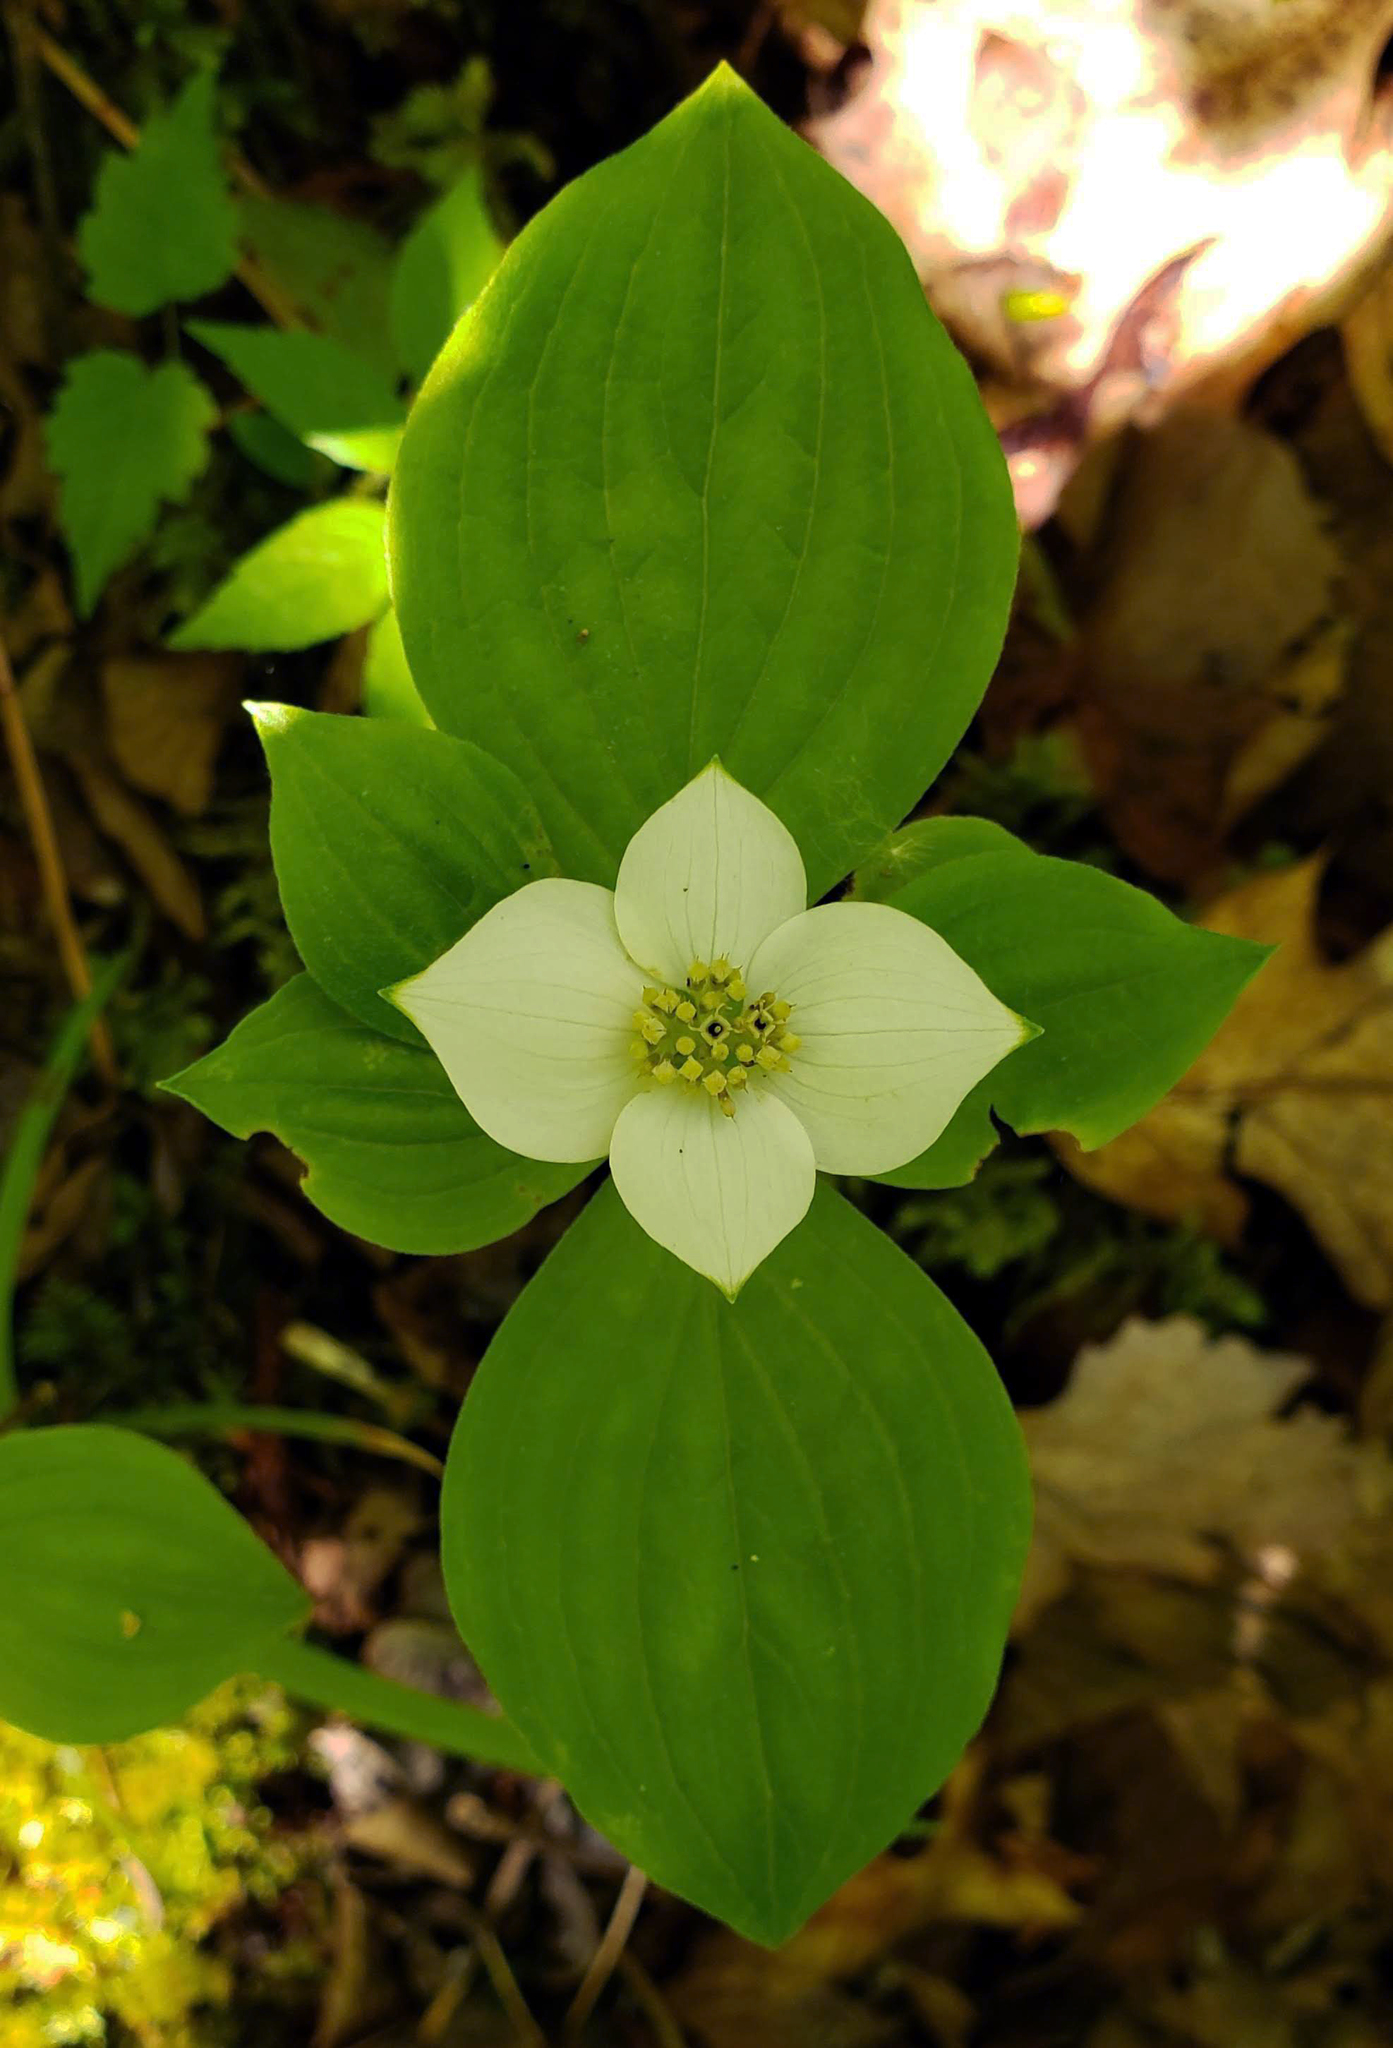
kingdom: Plantae
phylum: Tracheophyta
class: Magnoliopsida
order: Cornales
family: Cornaceae
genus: Cornus
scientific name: Cornus canadensis
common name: Creeping dogwood
